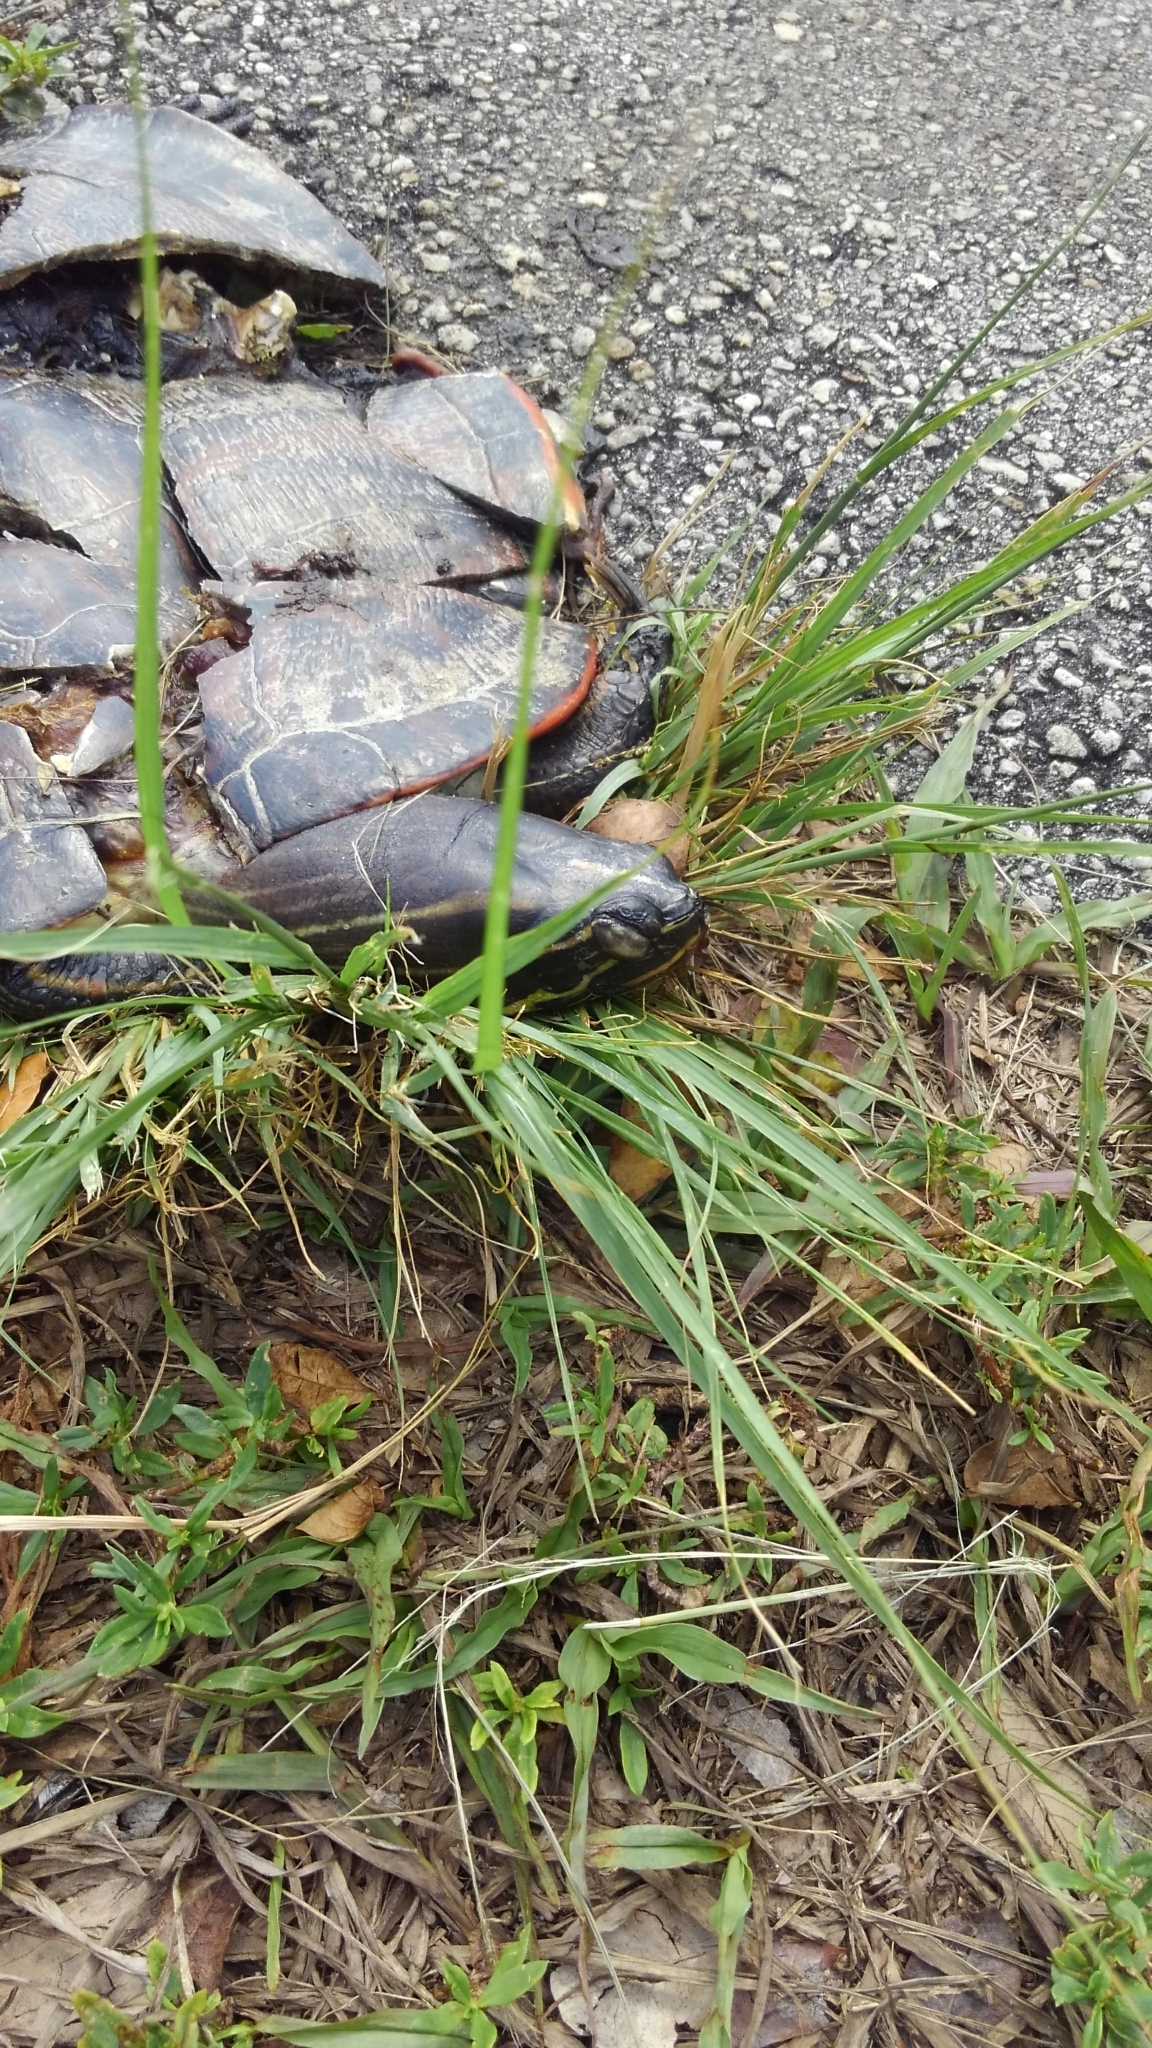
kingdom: Animalia
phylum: Chordata
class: Testudines
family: Emydidae
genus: Pseudemys
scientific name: Pseudemys nelsoni
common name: Florida red-bellied turtle
